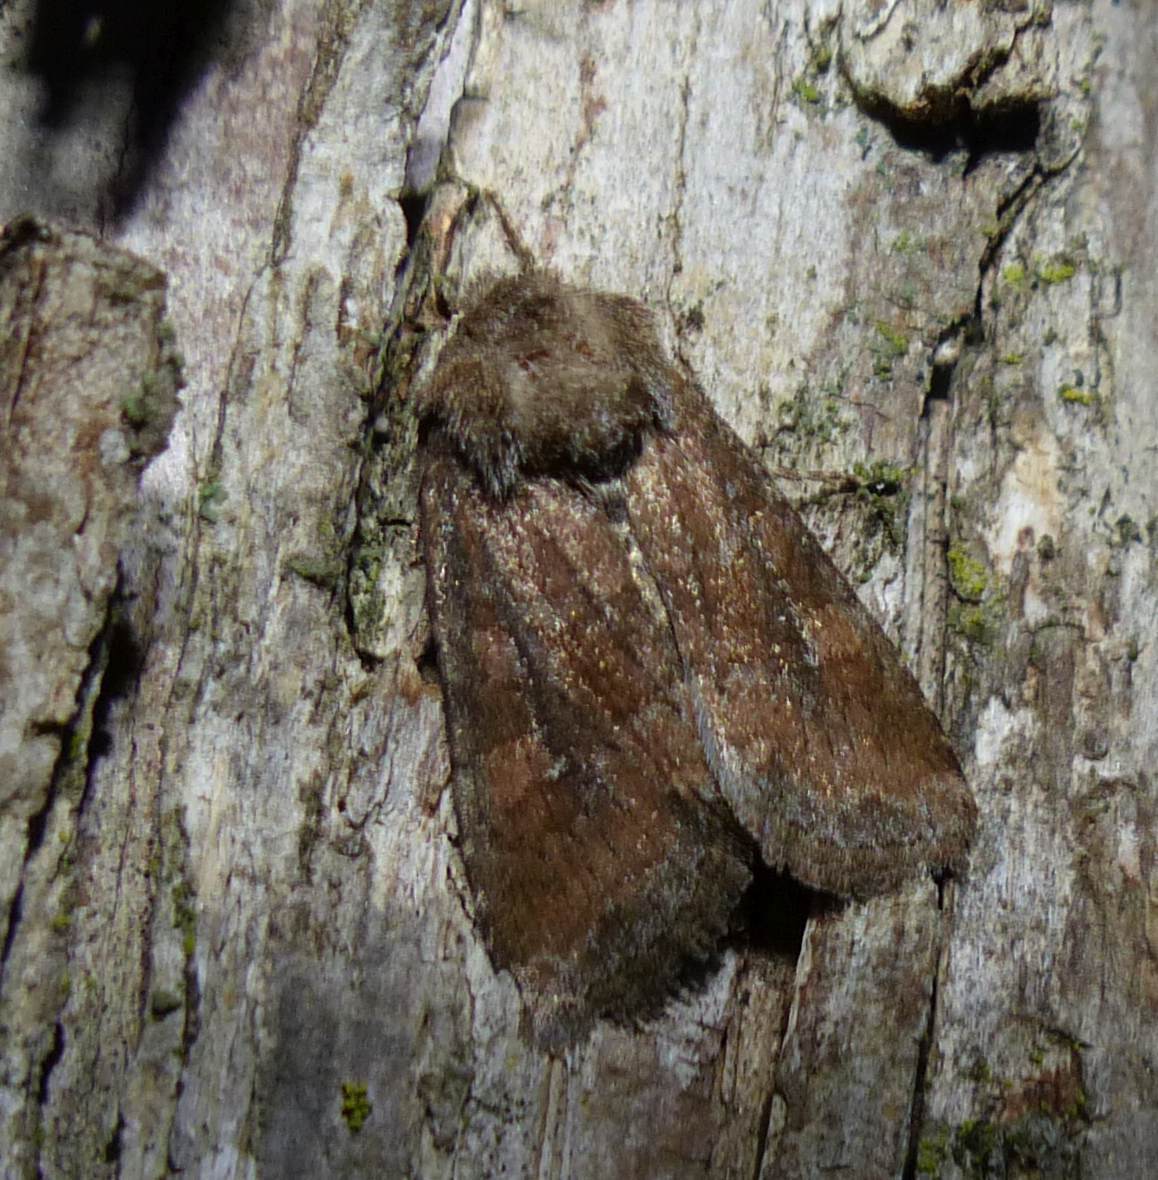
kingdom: Animalia
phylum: Arthropoda
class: Insecta
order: Lepidoptera
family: Noctuidae
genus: Lacinipolia
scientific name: Lacinipolia meditata
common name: Thinker moth
